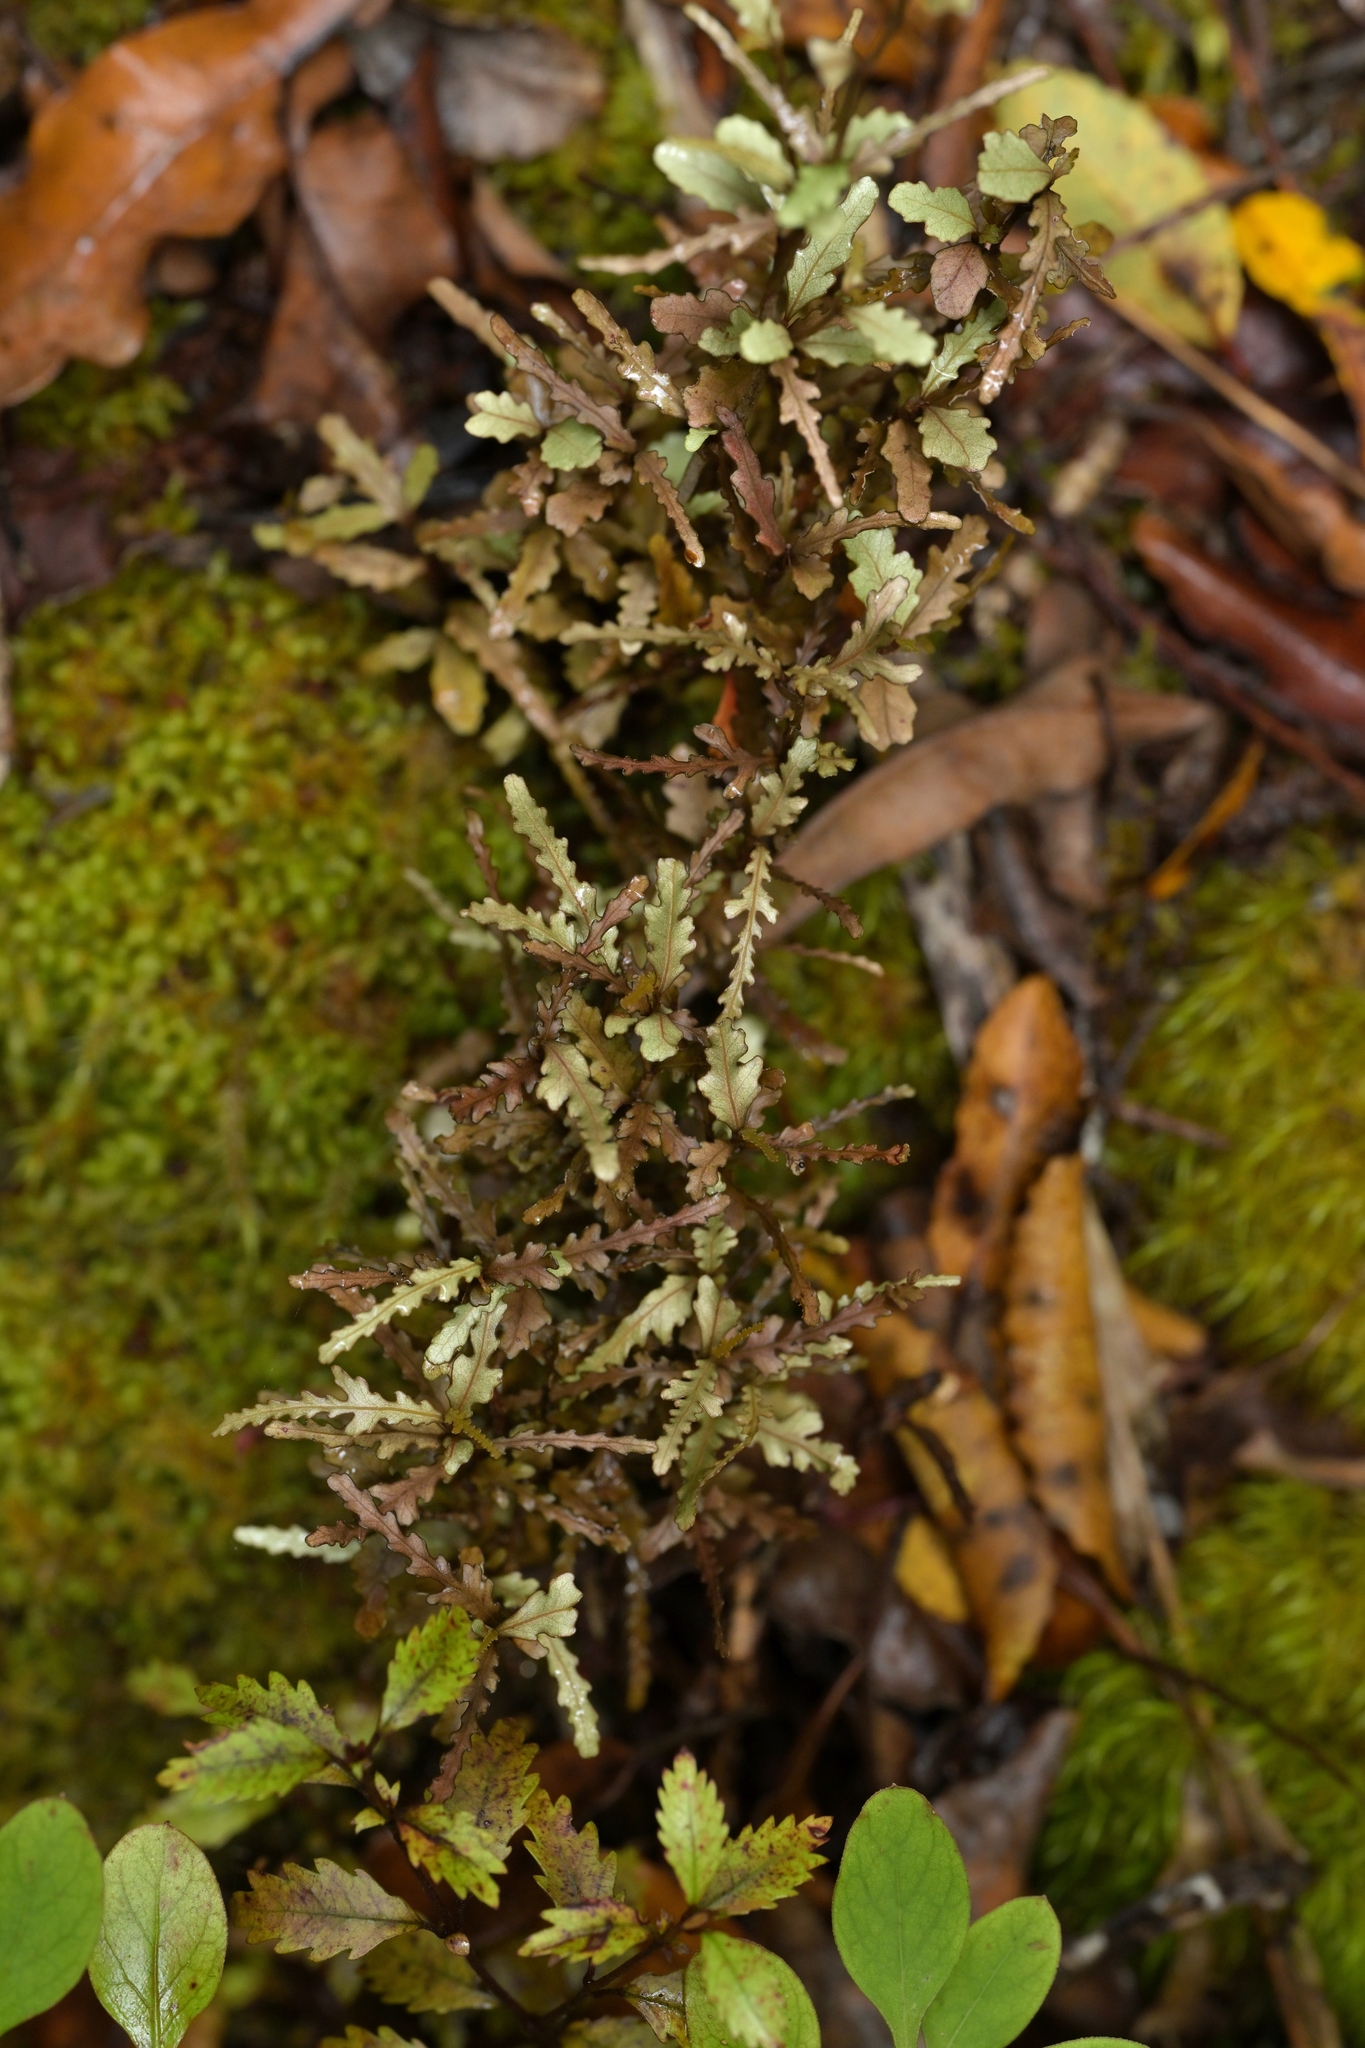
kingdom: Plantae
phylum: Tracheophyta
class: Magnoliopsida
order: Oxalidales
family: Elaeocarpaceae
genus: Elaeocarpus
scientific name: Elaeocarpus hookerianus
